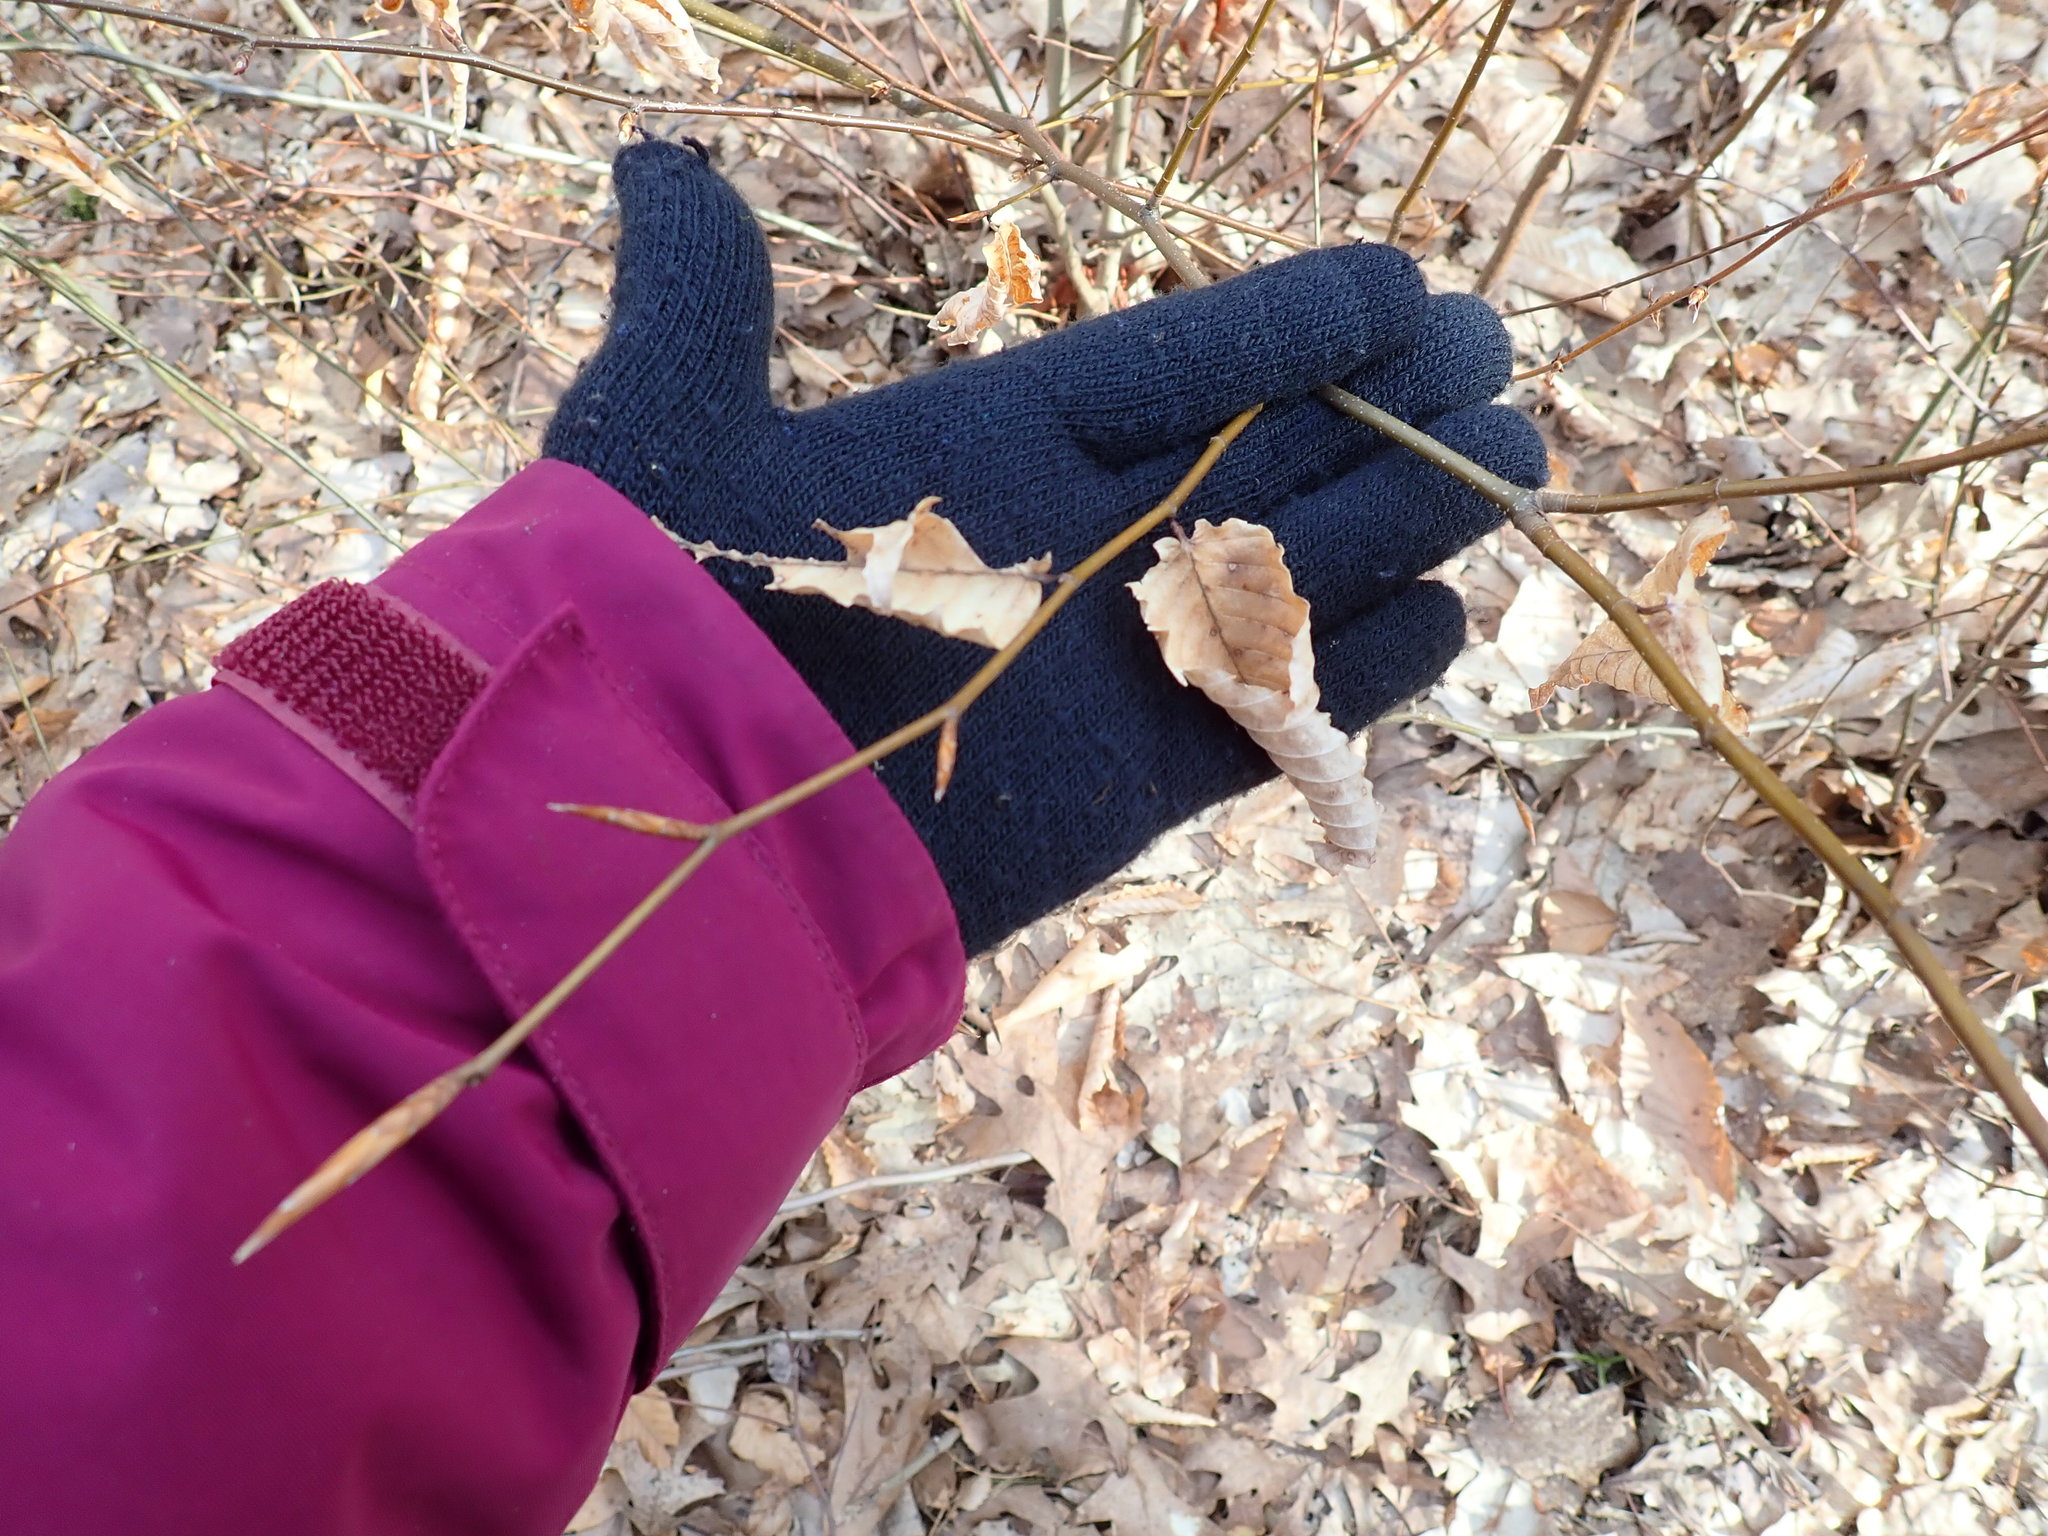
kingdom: Plantae
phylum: Tracheophyta
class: Magnoliopsida
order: Fagales
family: Fagaceae
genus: Fagus
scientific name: Fagus grandifolia
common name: American beech
